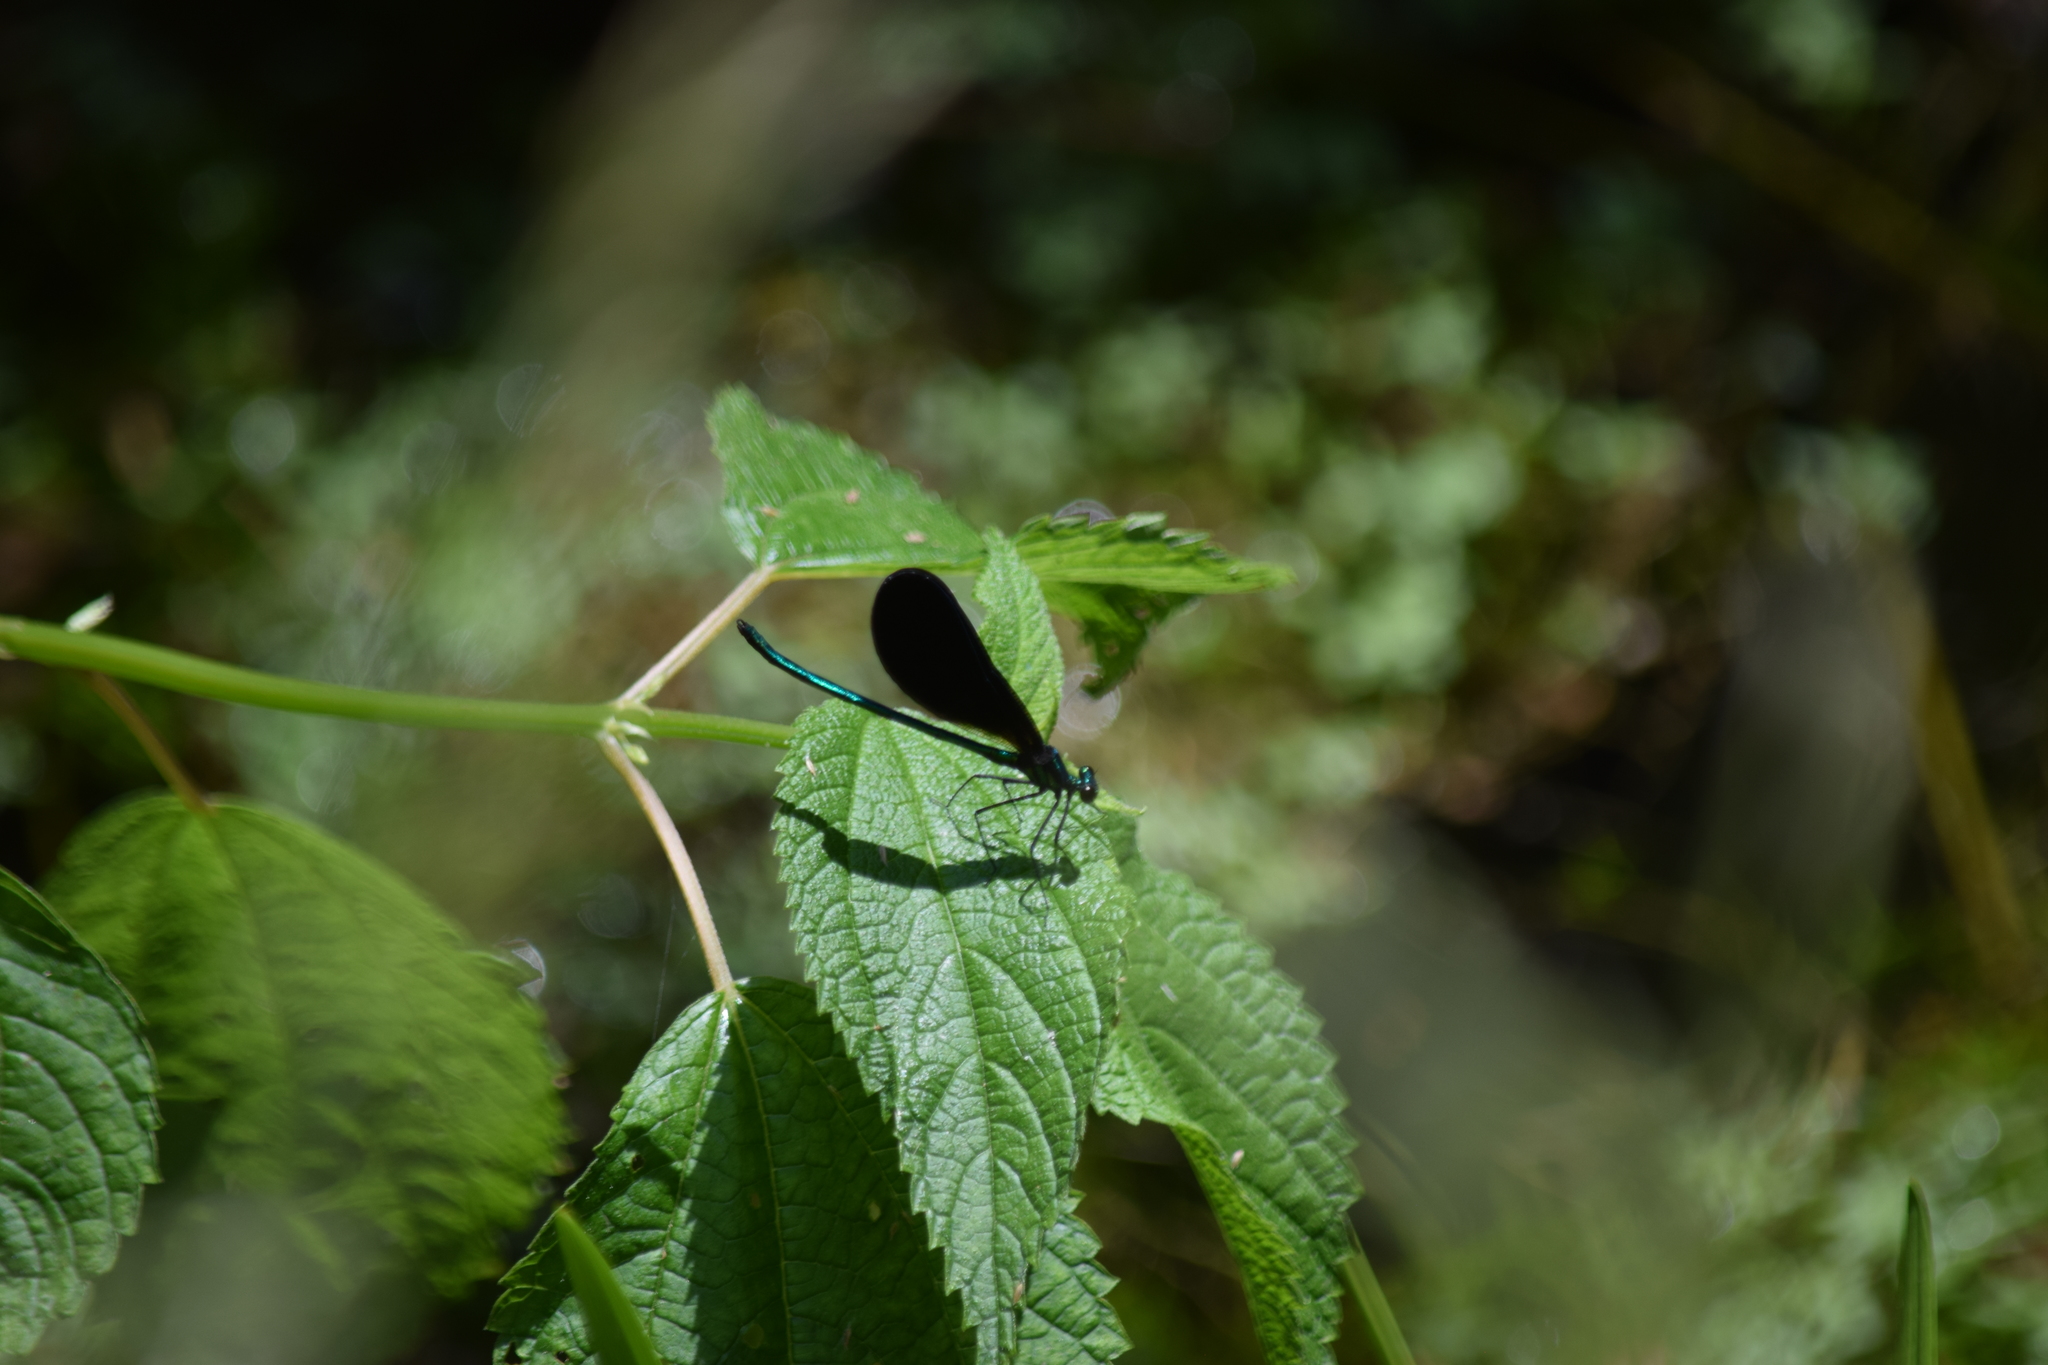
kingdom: Animalia
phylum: Arthropoda
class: Insecta
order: Odonata
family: Calopterygidae
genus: Calopteryx
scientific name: Calopteryx maculata
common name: Ebony jewelwing
